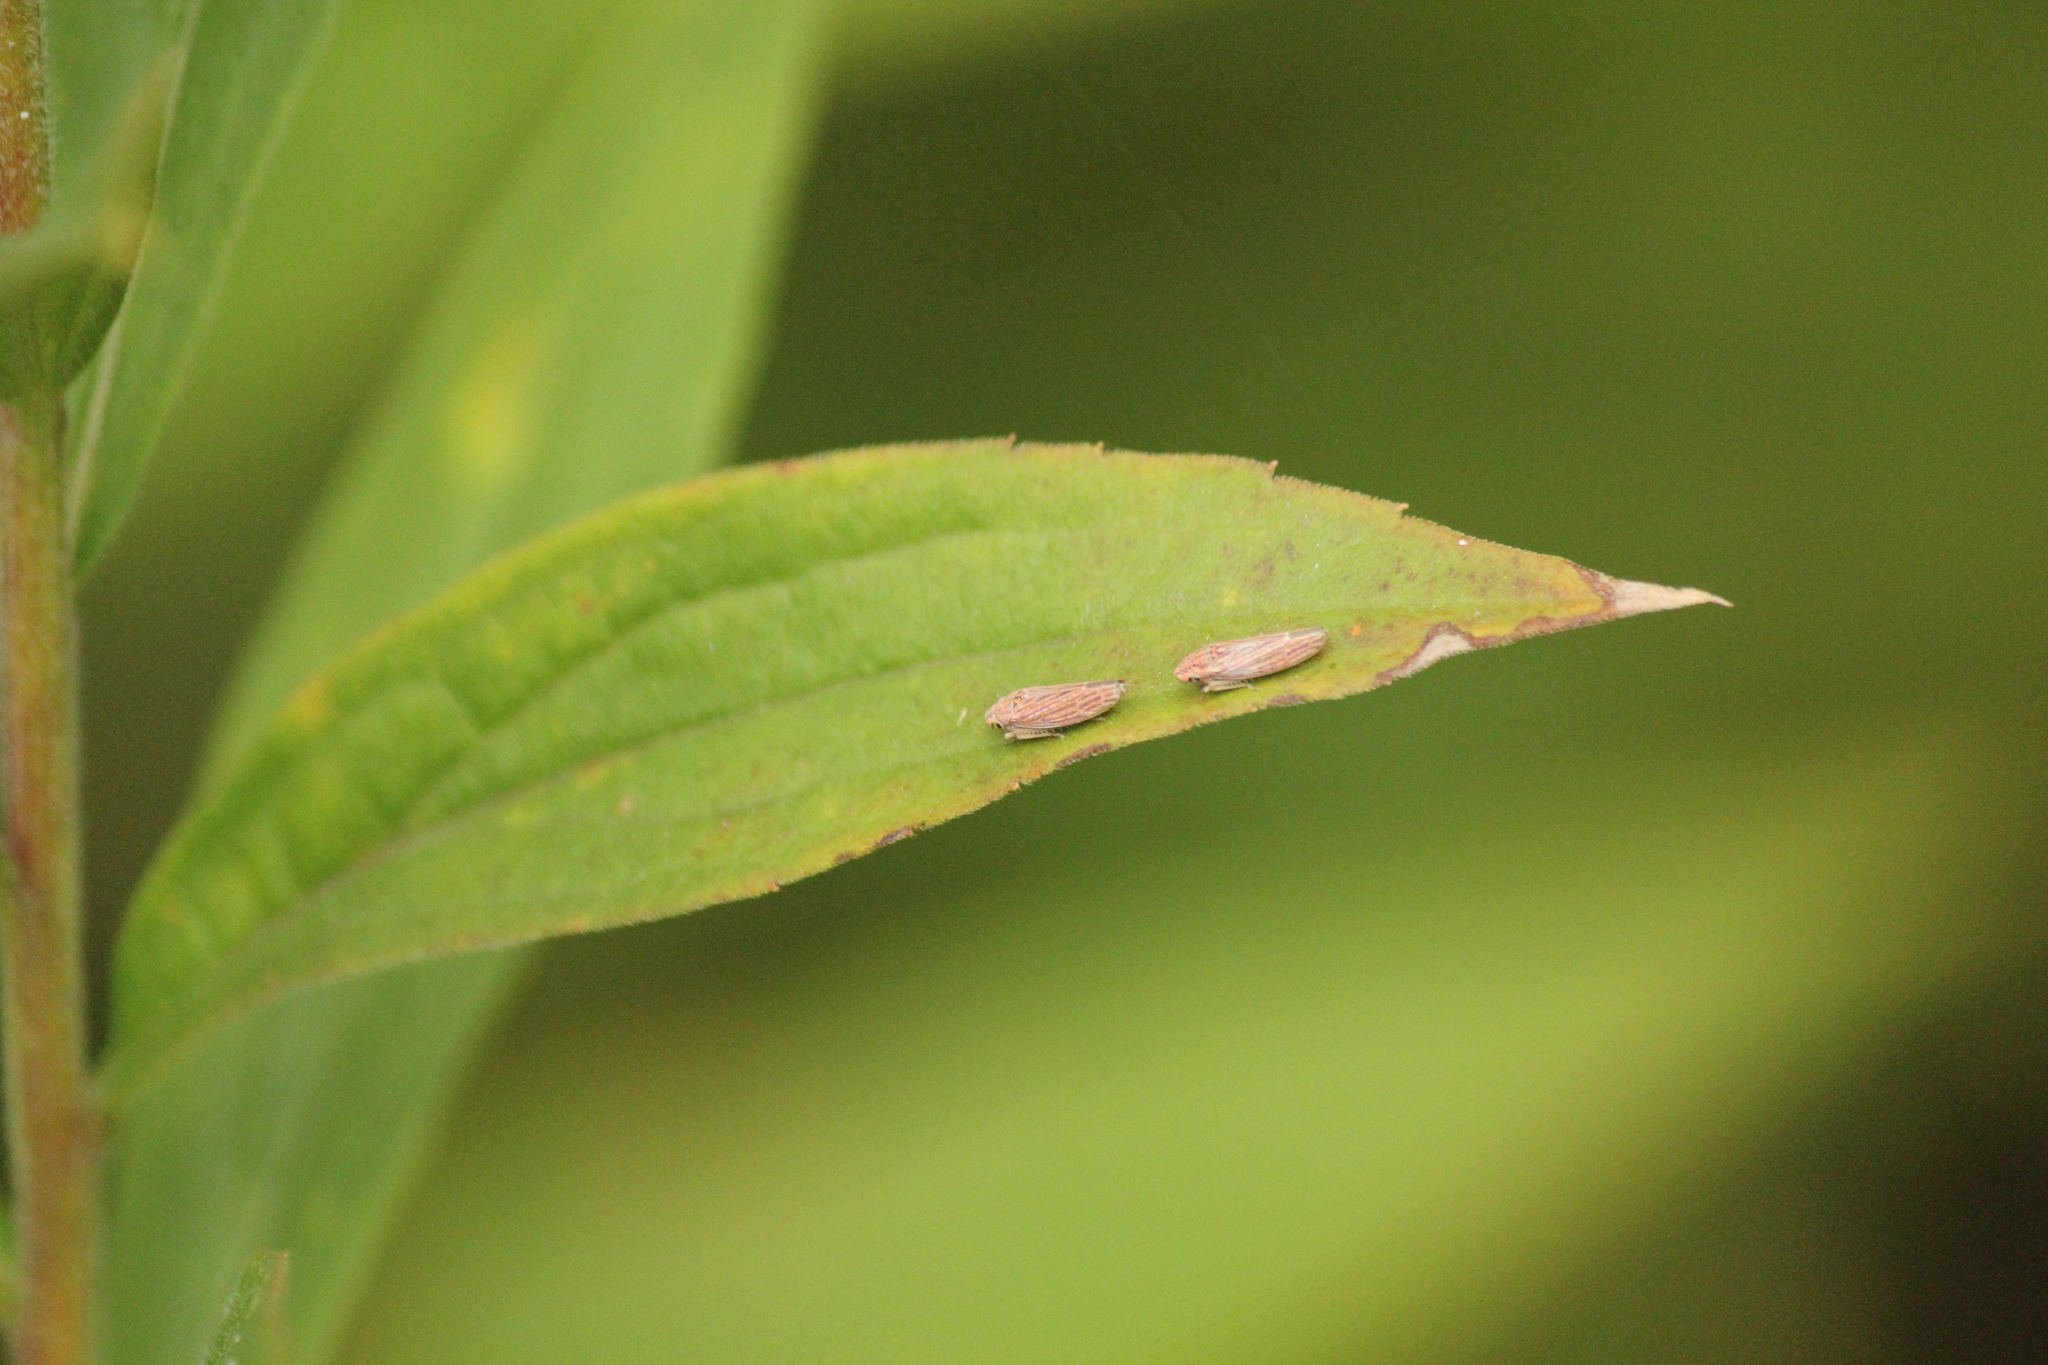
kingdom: Animalia
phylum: Arthropoda
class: Insecta
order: Hemiptera
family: Cicadellidae
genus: Neokolla
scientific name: Neokolla hieroglyphica
